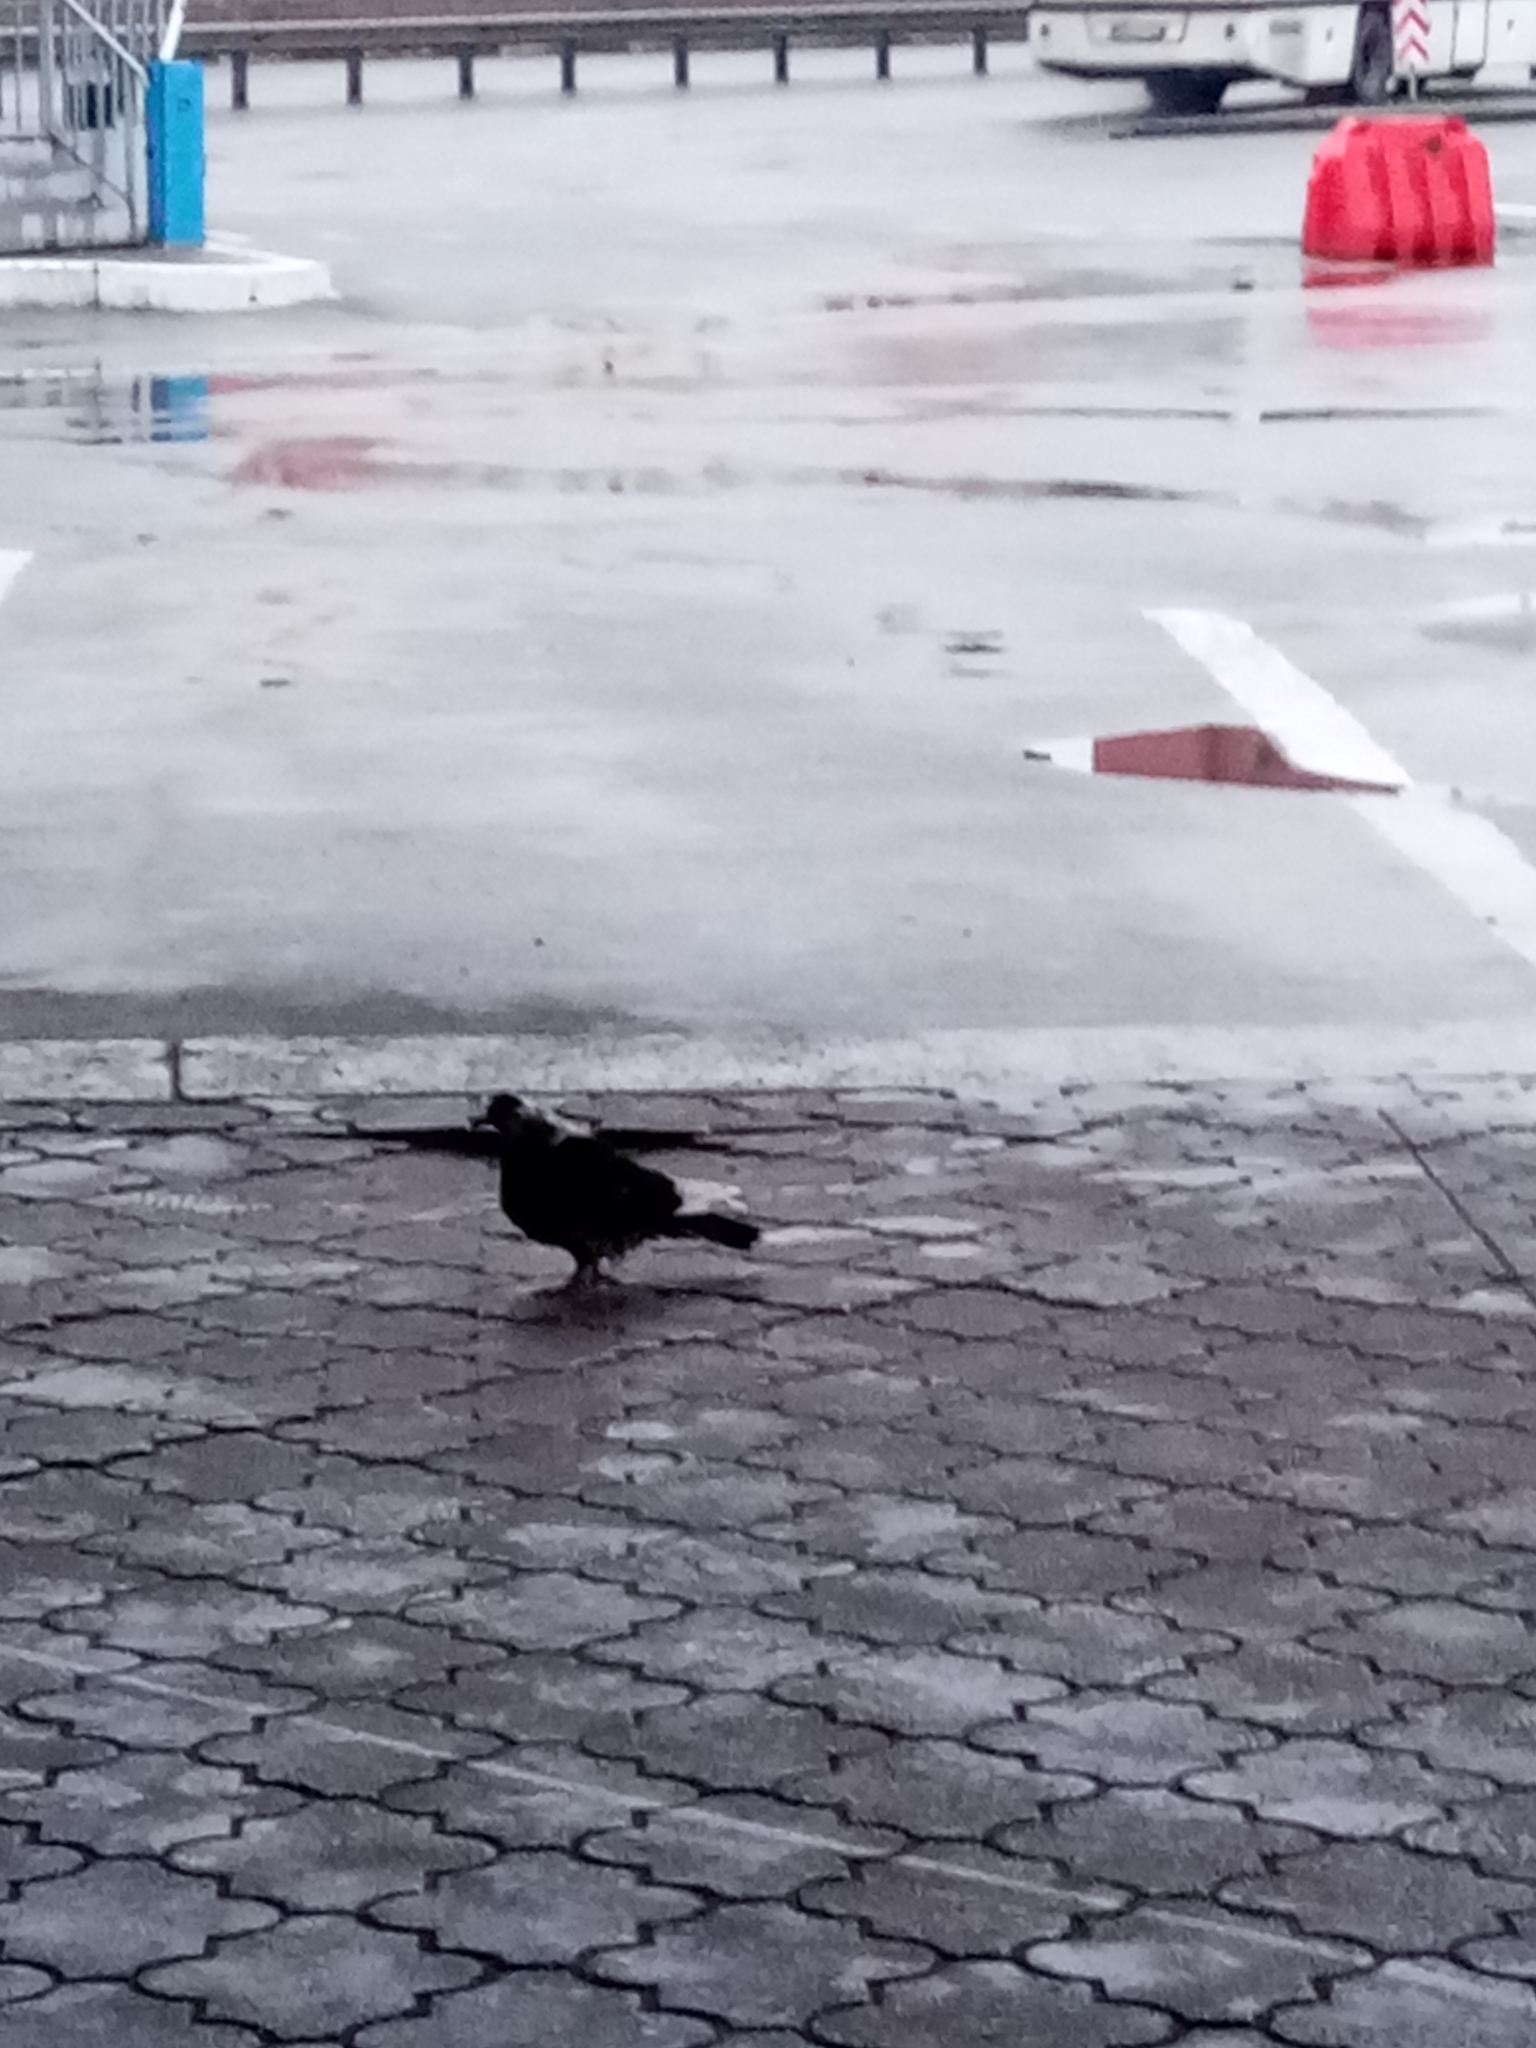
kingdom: Animalia
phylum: Chordata
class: Aves
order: Columbiformes
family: Columbidae
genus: Columba
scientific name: Columba livia
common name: Rock pigeon
